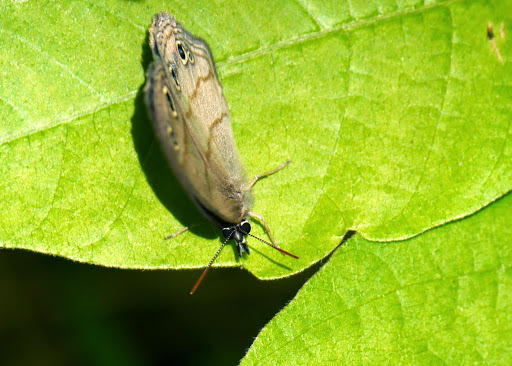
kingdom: Animalia
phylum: Arthropoda
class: Insecta
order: Lepidoptera
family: Nymphalidae
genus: Euptychia
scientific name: Euptychia cymela
